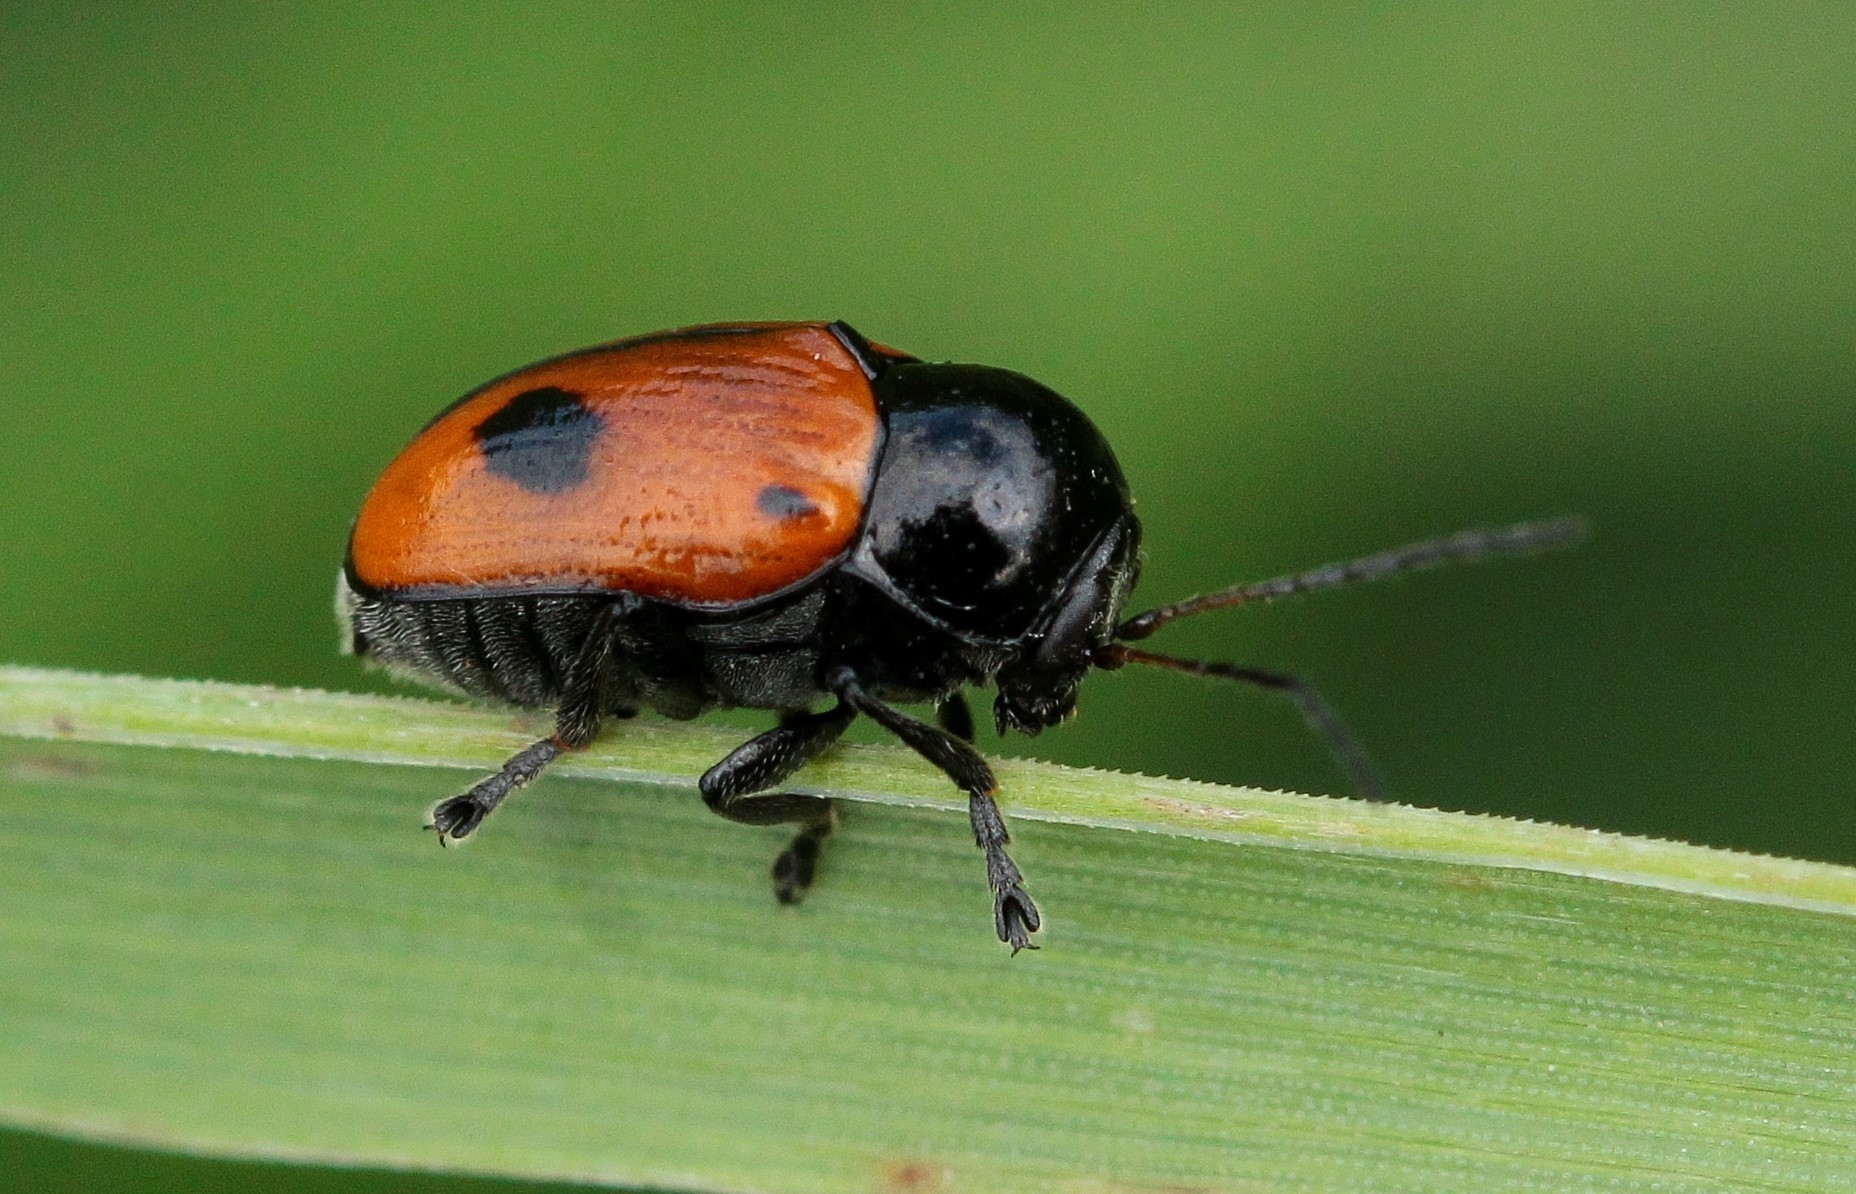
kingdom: Animalia
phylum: Arthropoda
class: Insecta
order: Coleoptera
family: Chrysomelidae
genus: Chiridopsis
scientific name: Chiridopsis bipunctata
